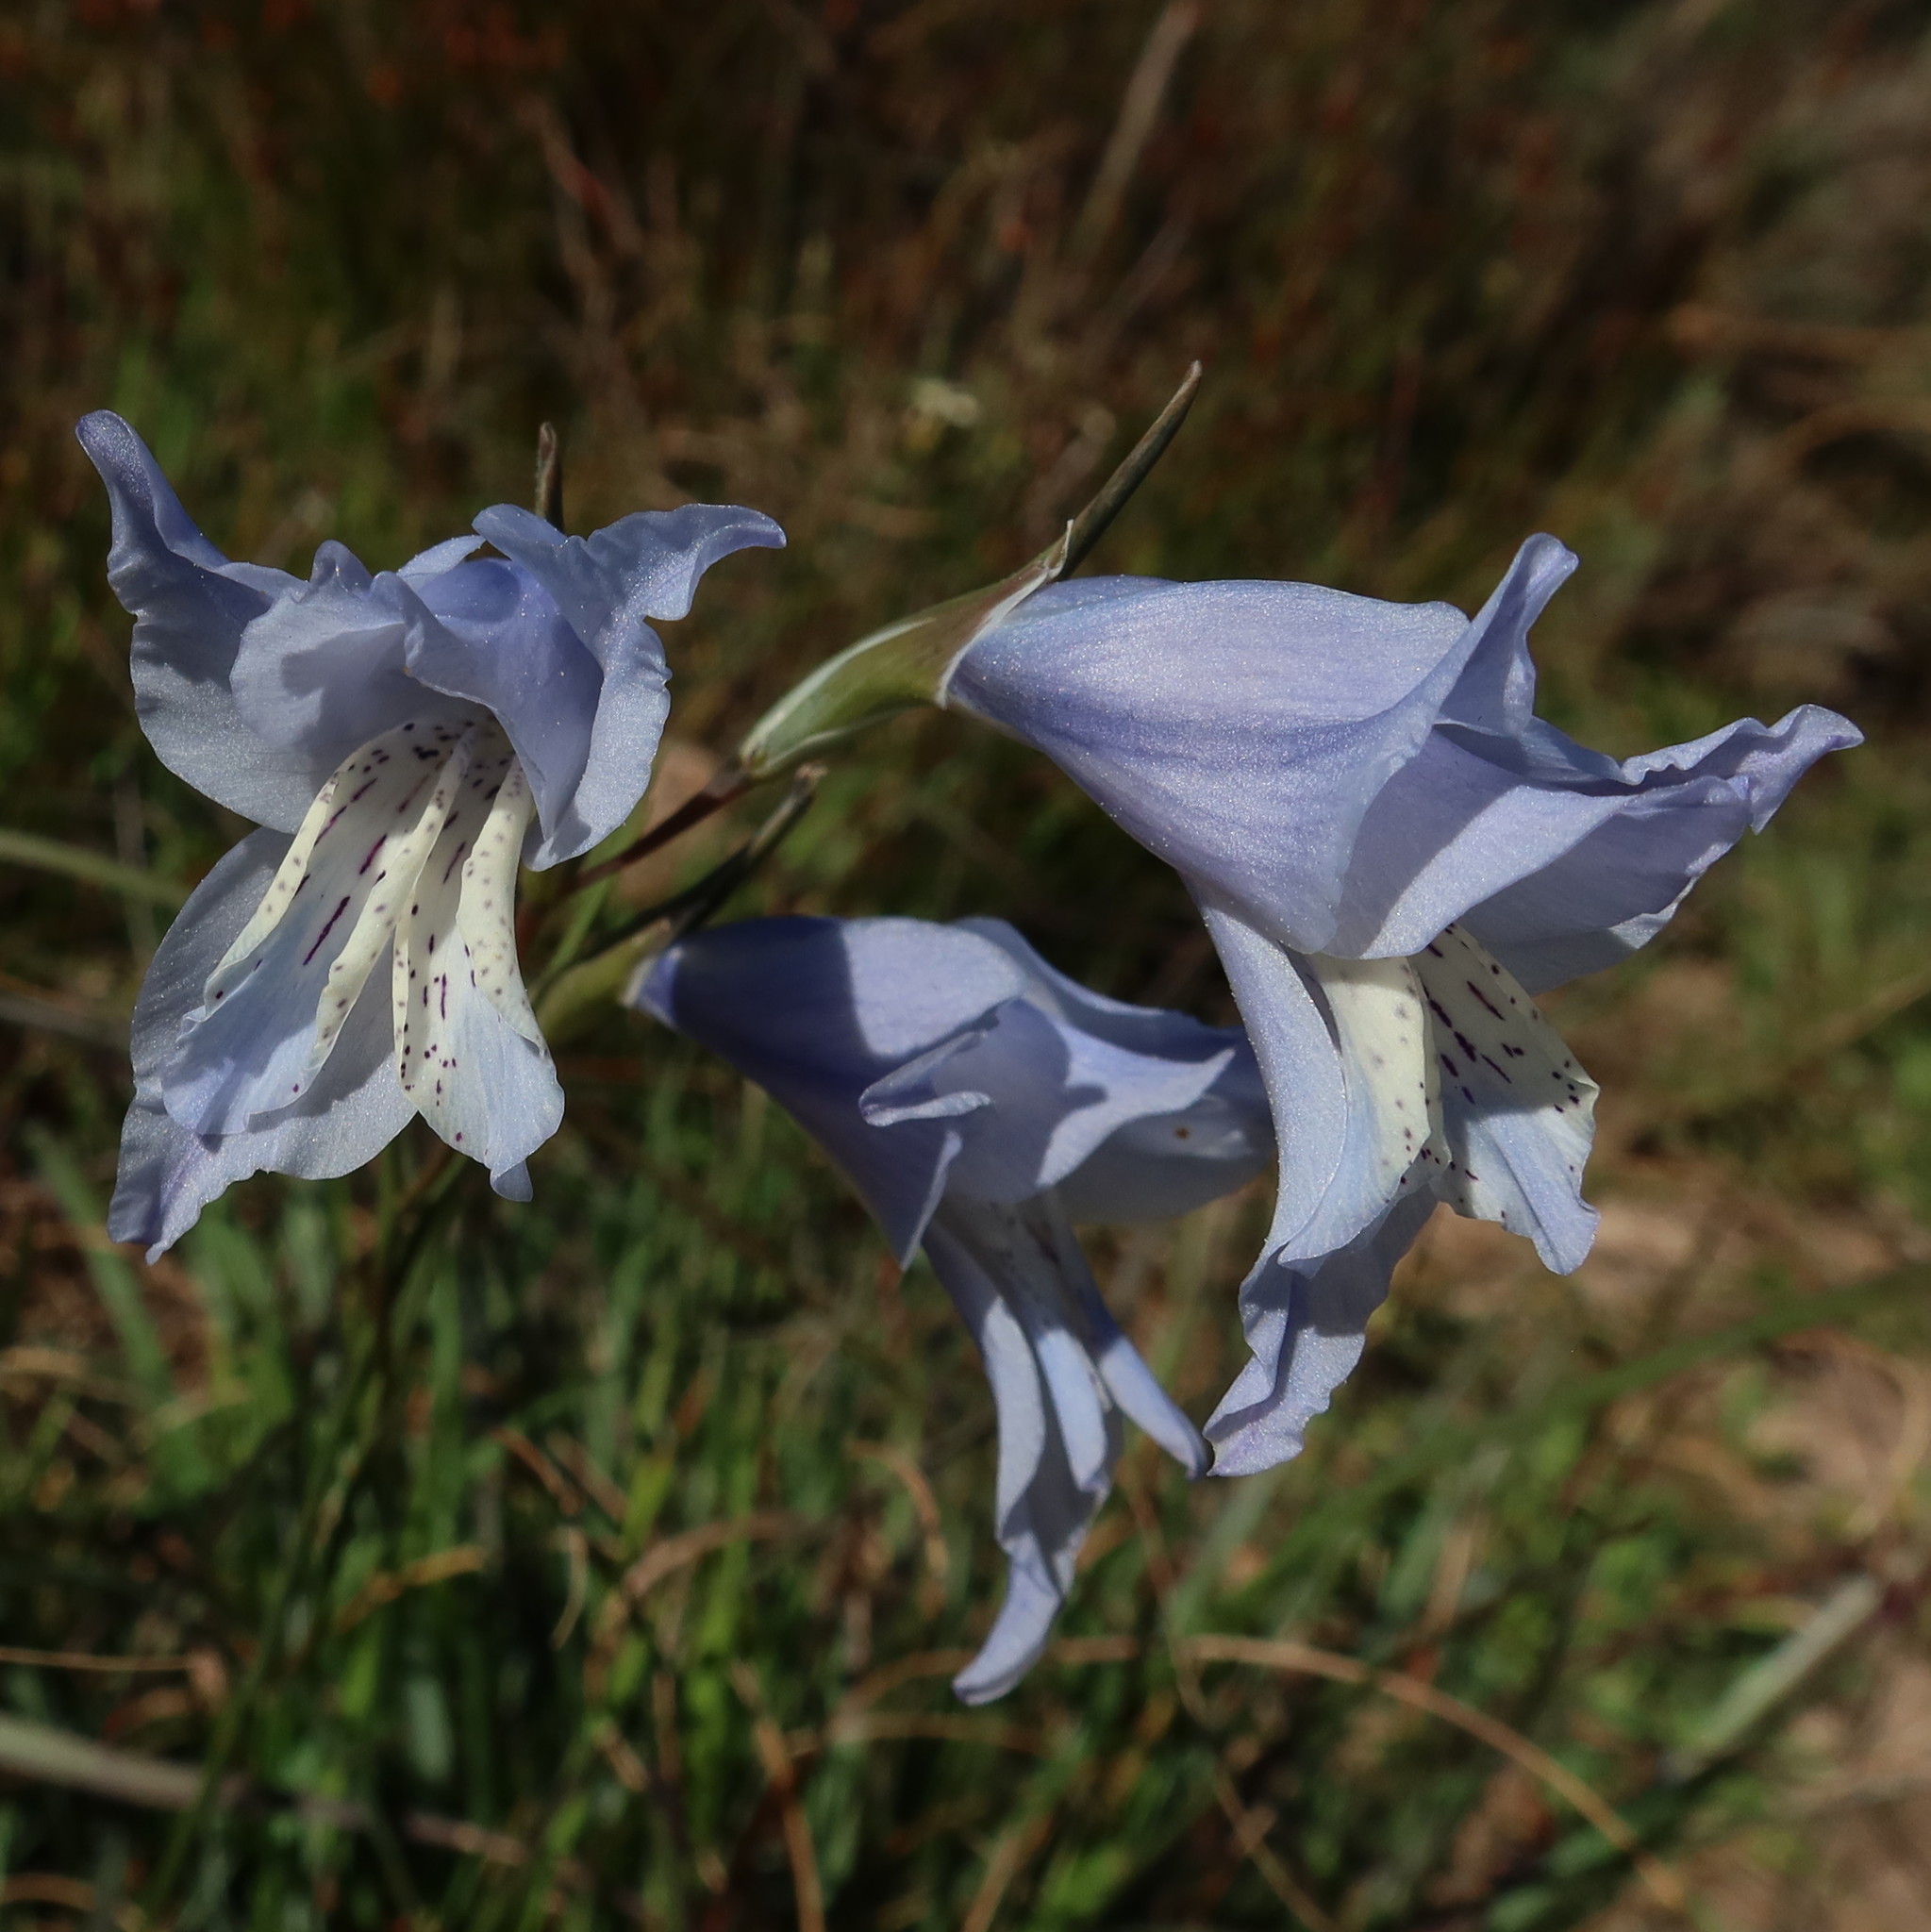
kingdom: Plantae
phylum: Tracheophyta
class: Liliopsida
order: Asparagales
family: Iridaceae
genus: Gladiolus
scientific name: Gladiolus gracilis
